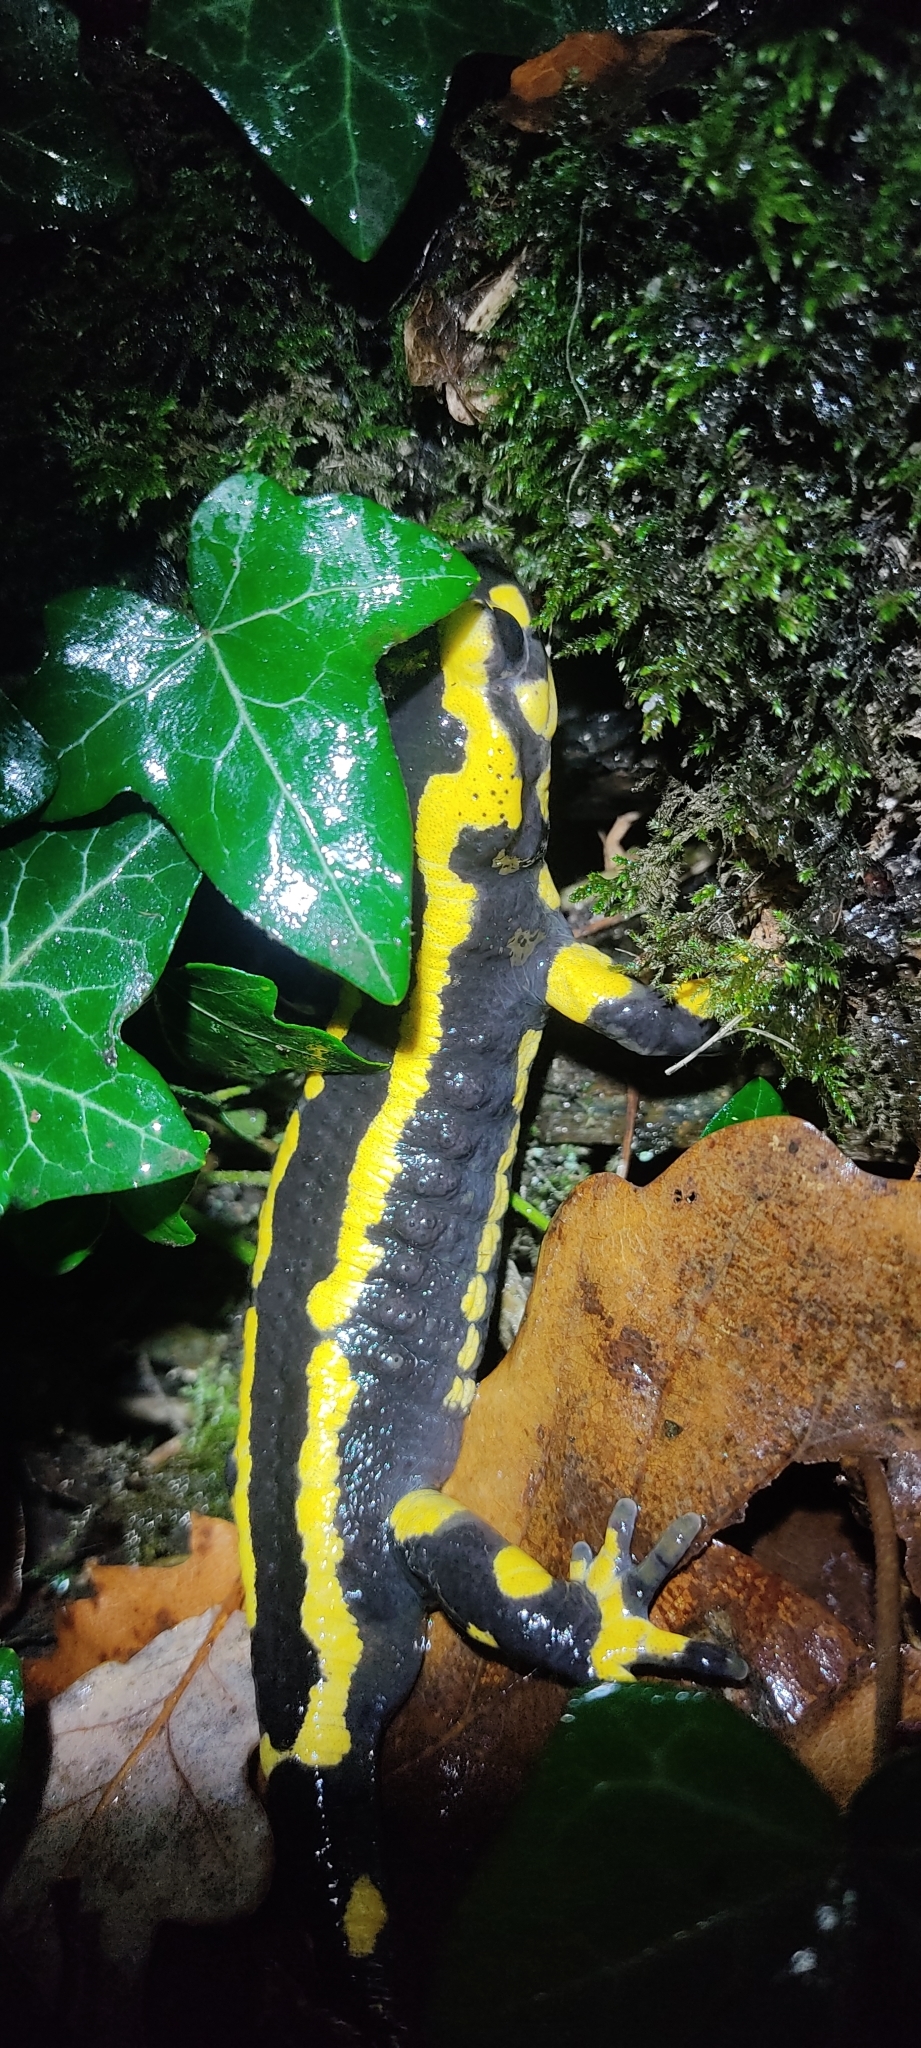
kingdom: Animalia
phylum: Chordata
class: Amphibia
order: Caudata
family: Salamandridae
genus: Salamandra
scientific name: Salamandra salamandra
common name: Fire salamander
